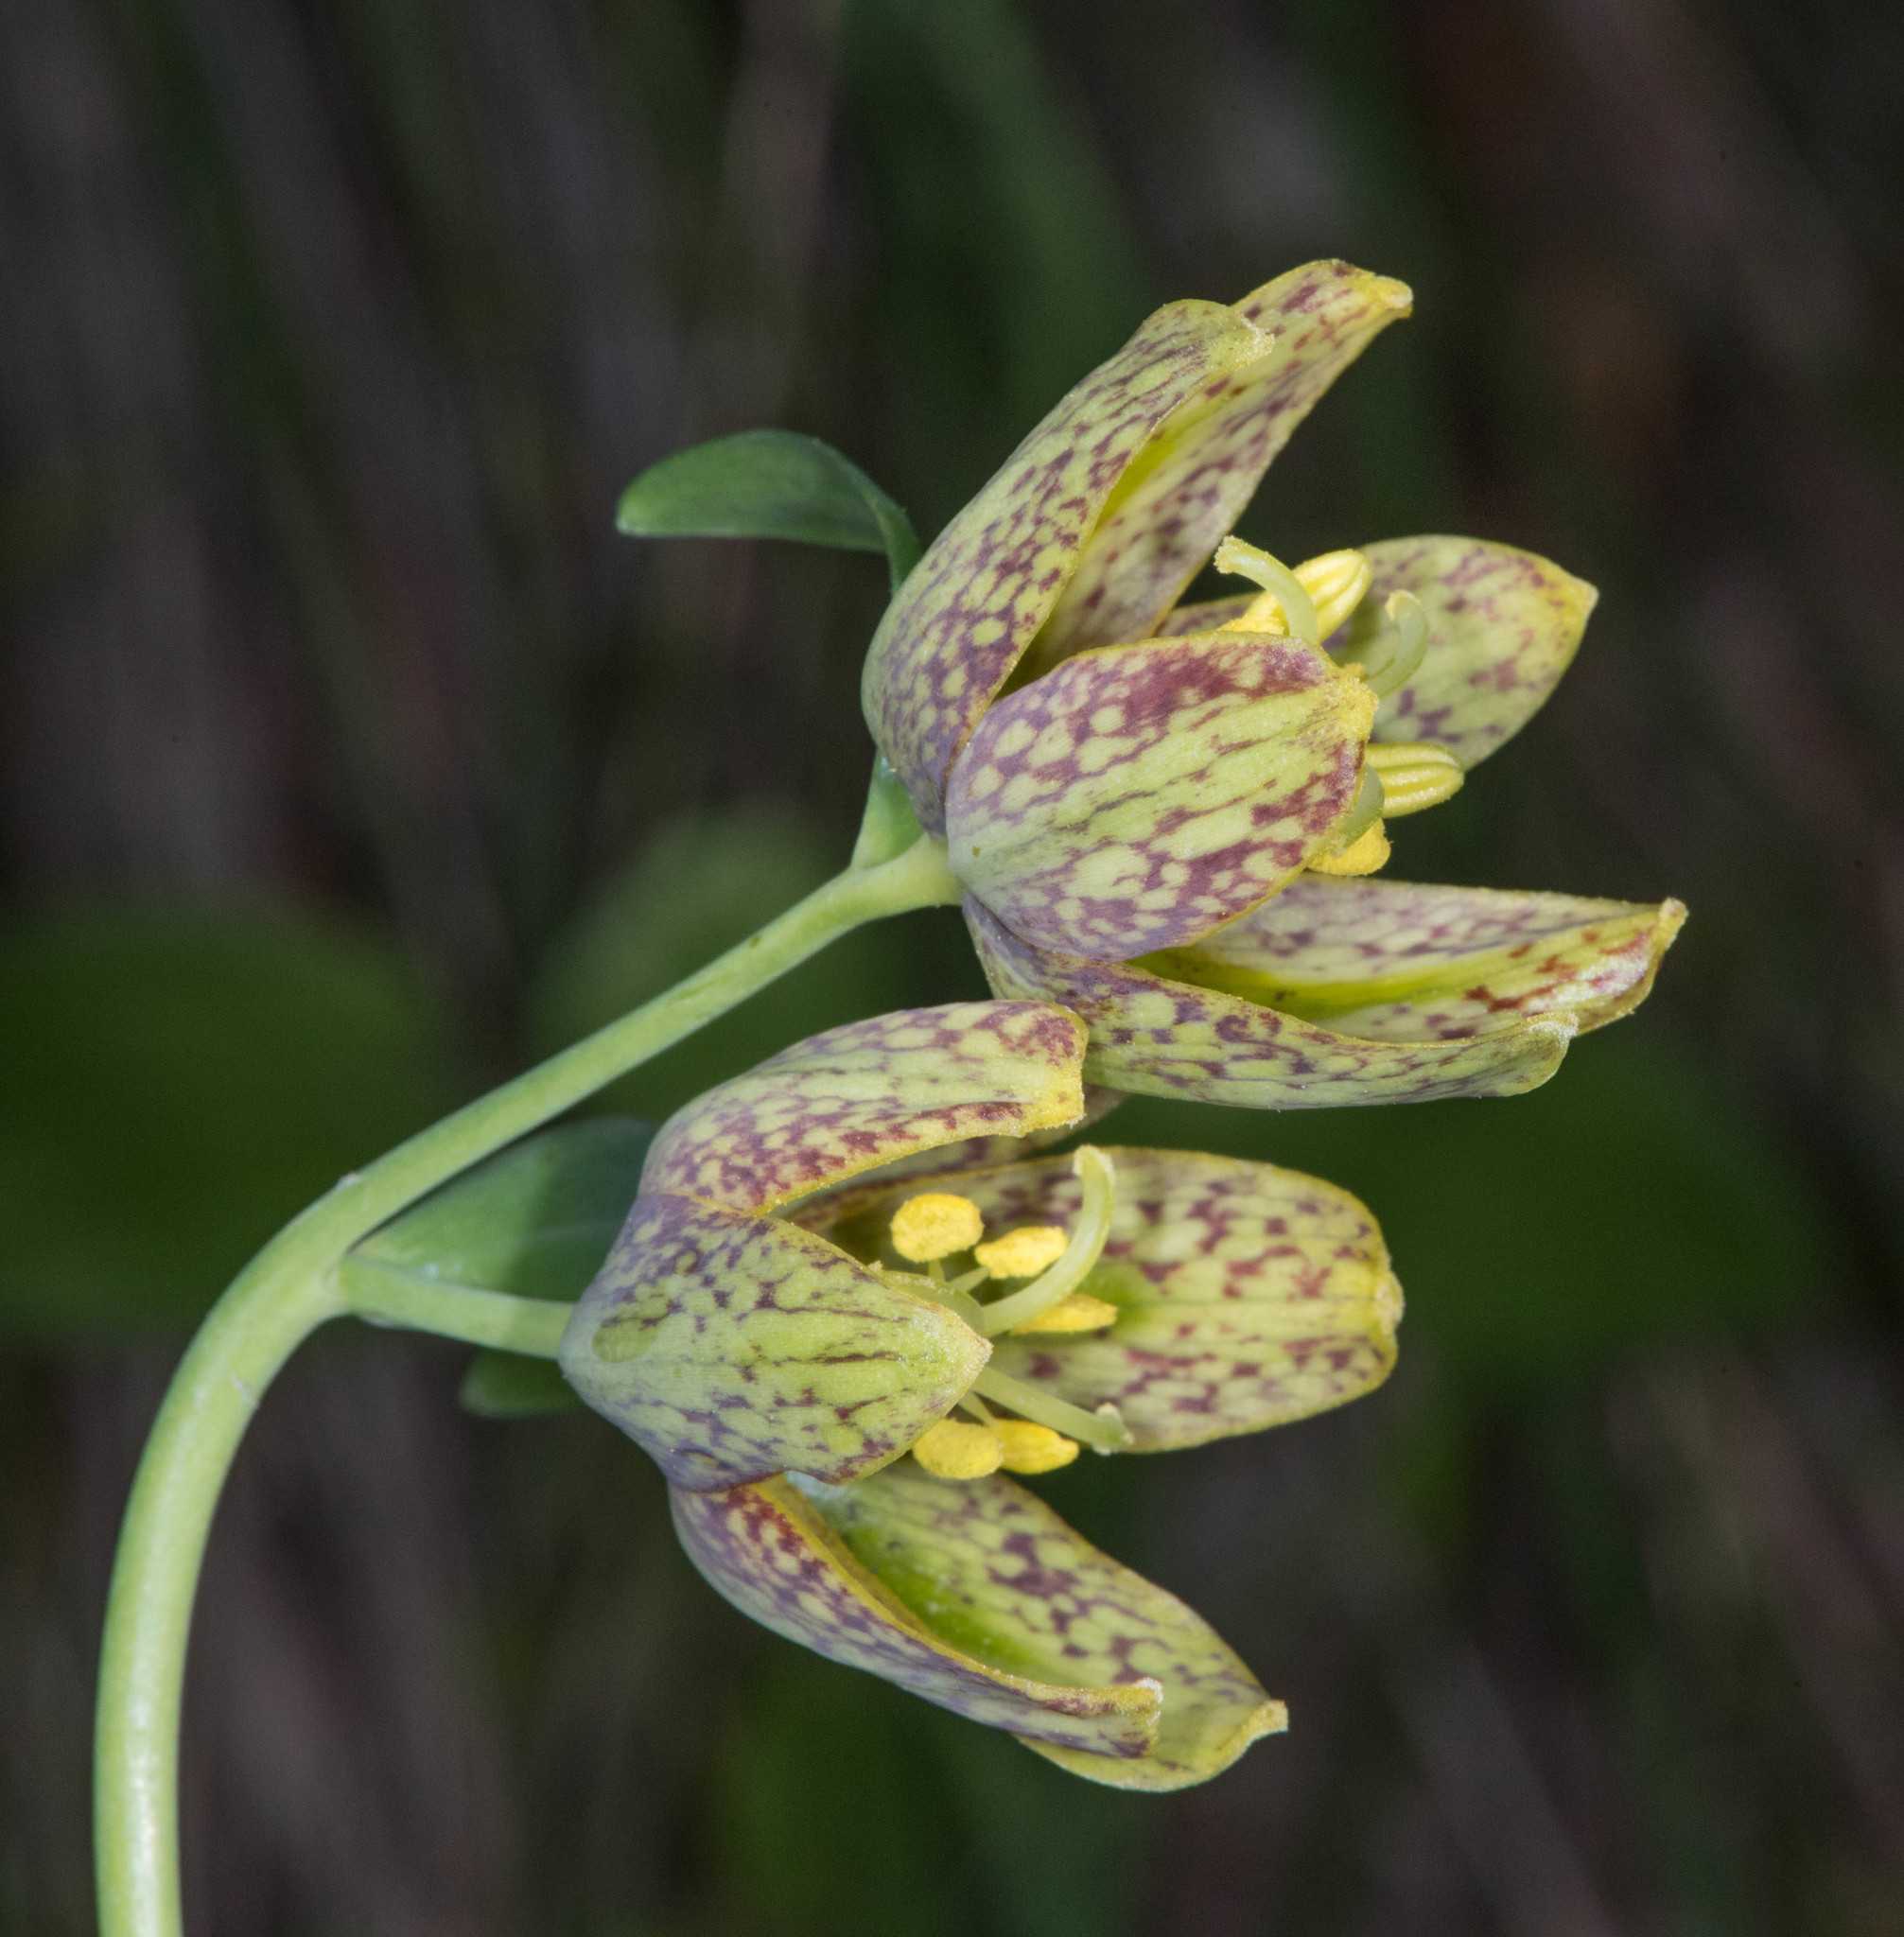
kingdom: Plantae
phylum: Tracheophyta
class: Liliopsida
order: Liliales
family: Liliaceae
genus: Fritillaria
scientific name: Fritillaria affinis
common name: Ojai fritillary
